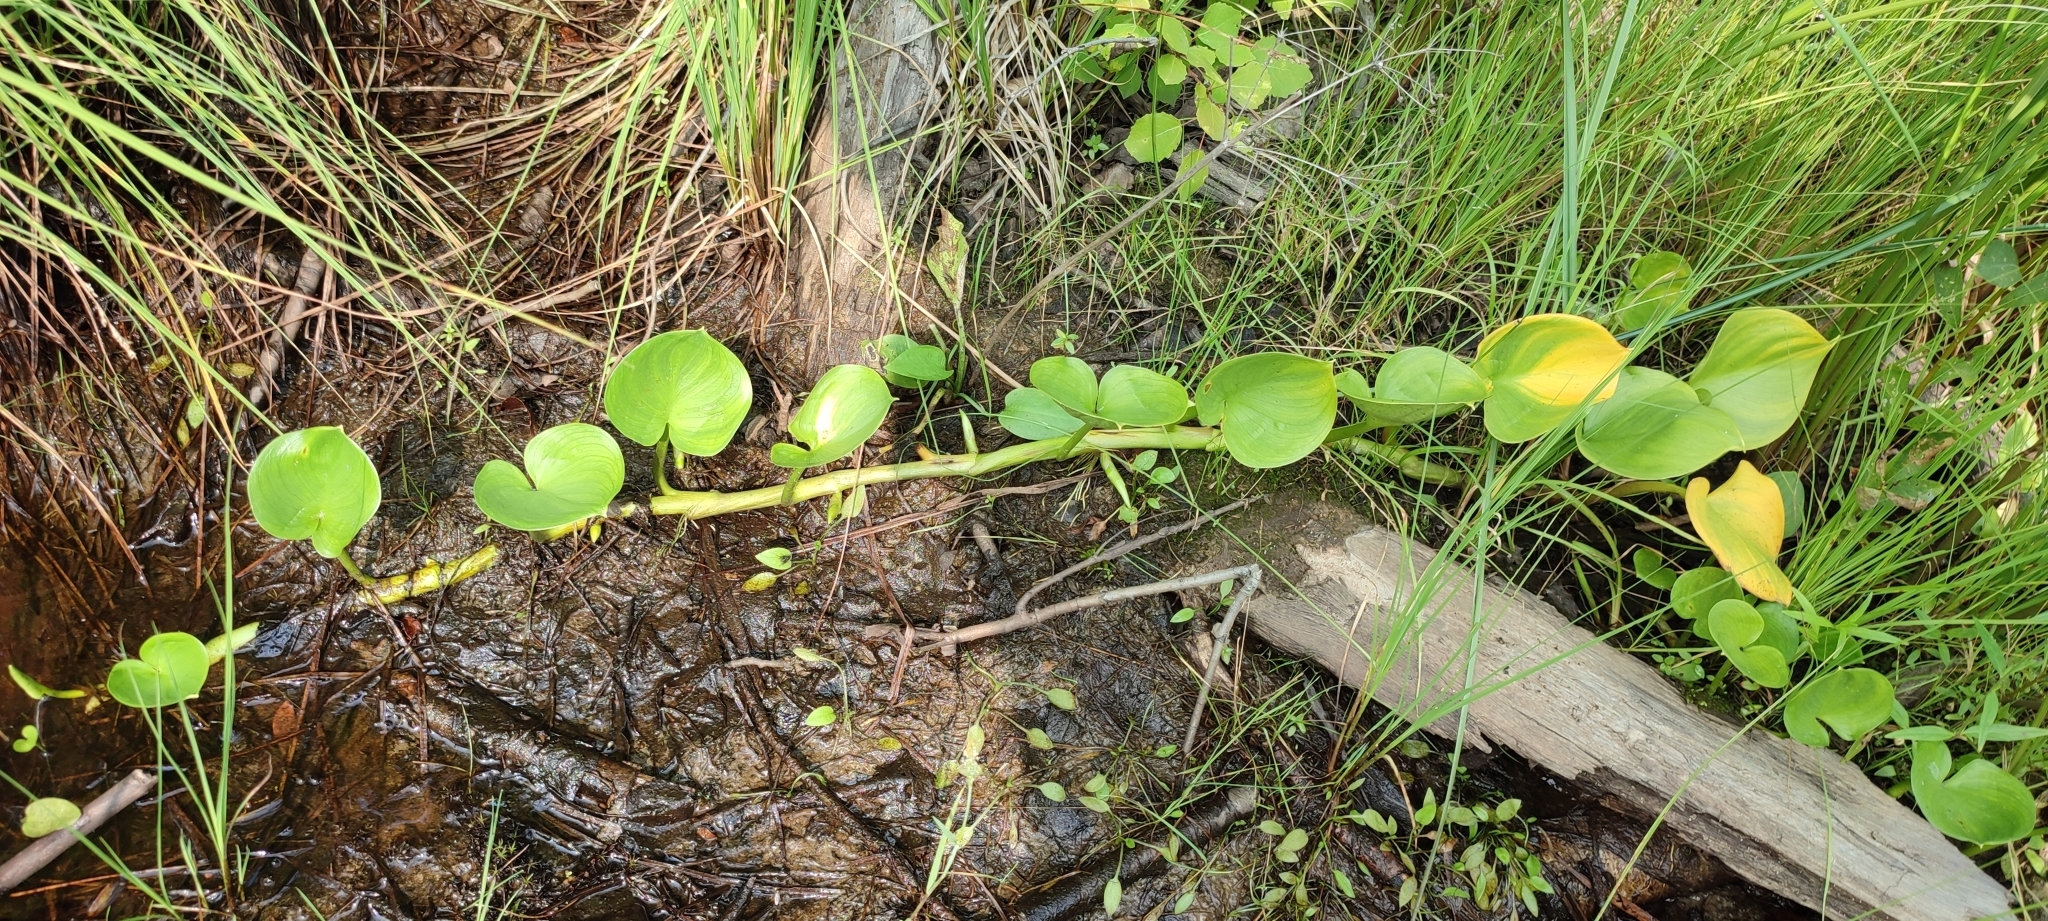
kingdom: Plantae
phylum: Tracheophyta
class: Liliopsida
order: Alismatales
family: Araceae
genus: Calla
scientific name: Calla palustris
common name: Bog arum
